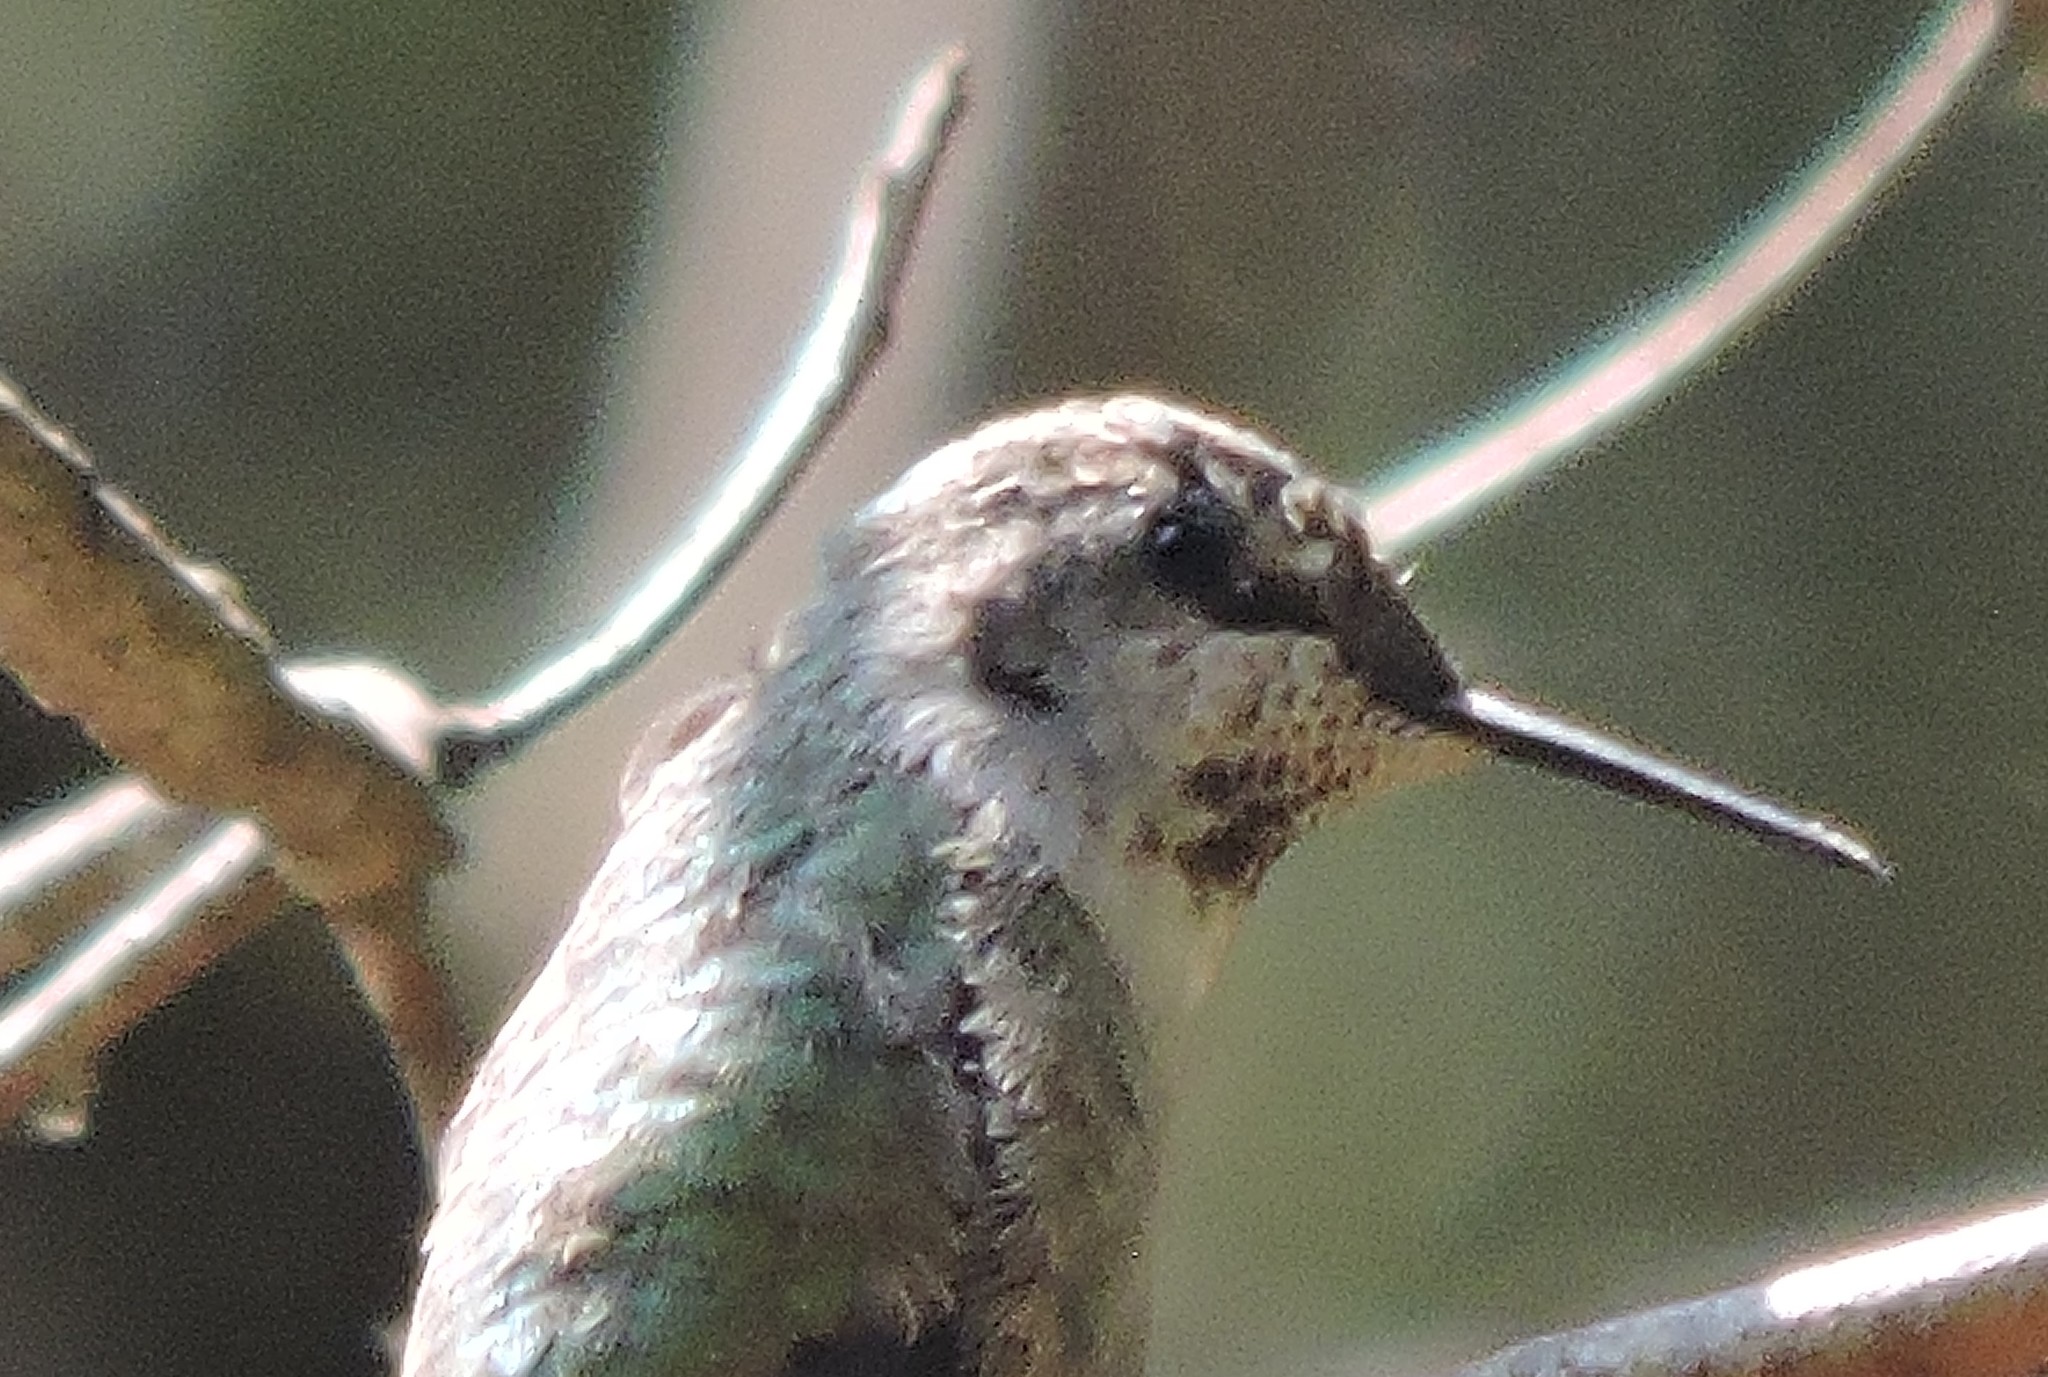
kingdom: Animalia
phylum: Chordata
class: Aves
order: Apodiformes
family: Trochilidae
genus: Calypte
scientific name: Calypte anna
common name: Anna's hummingbird
